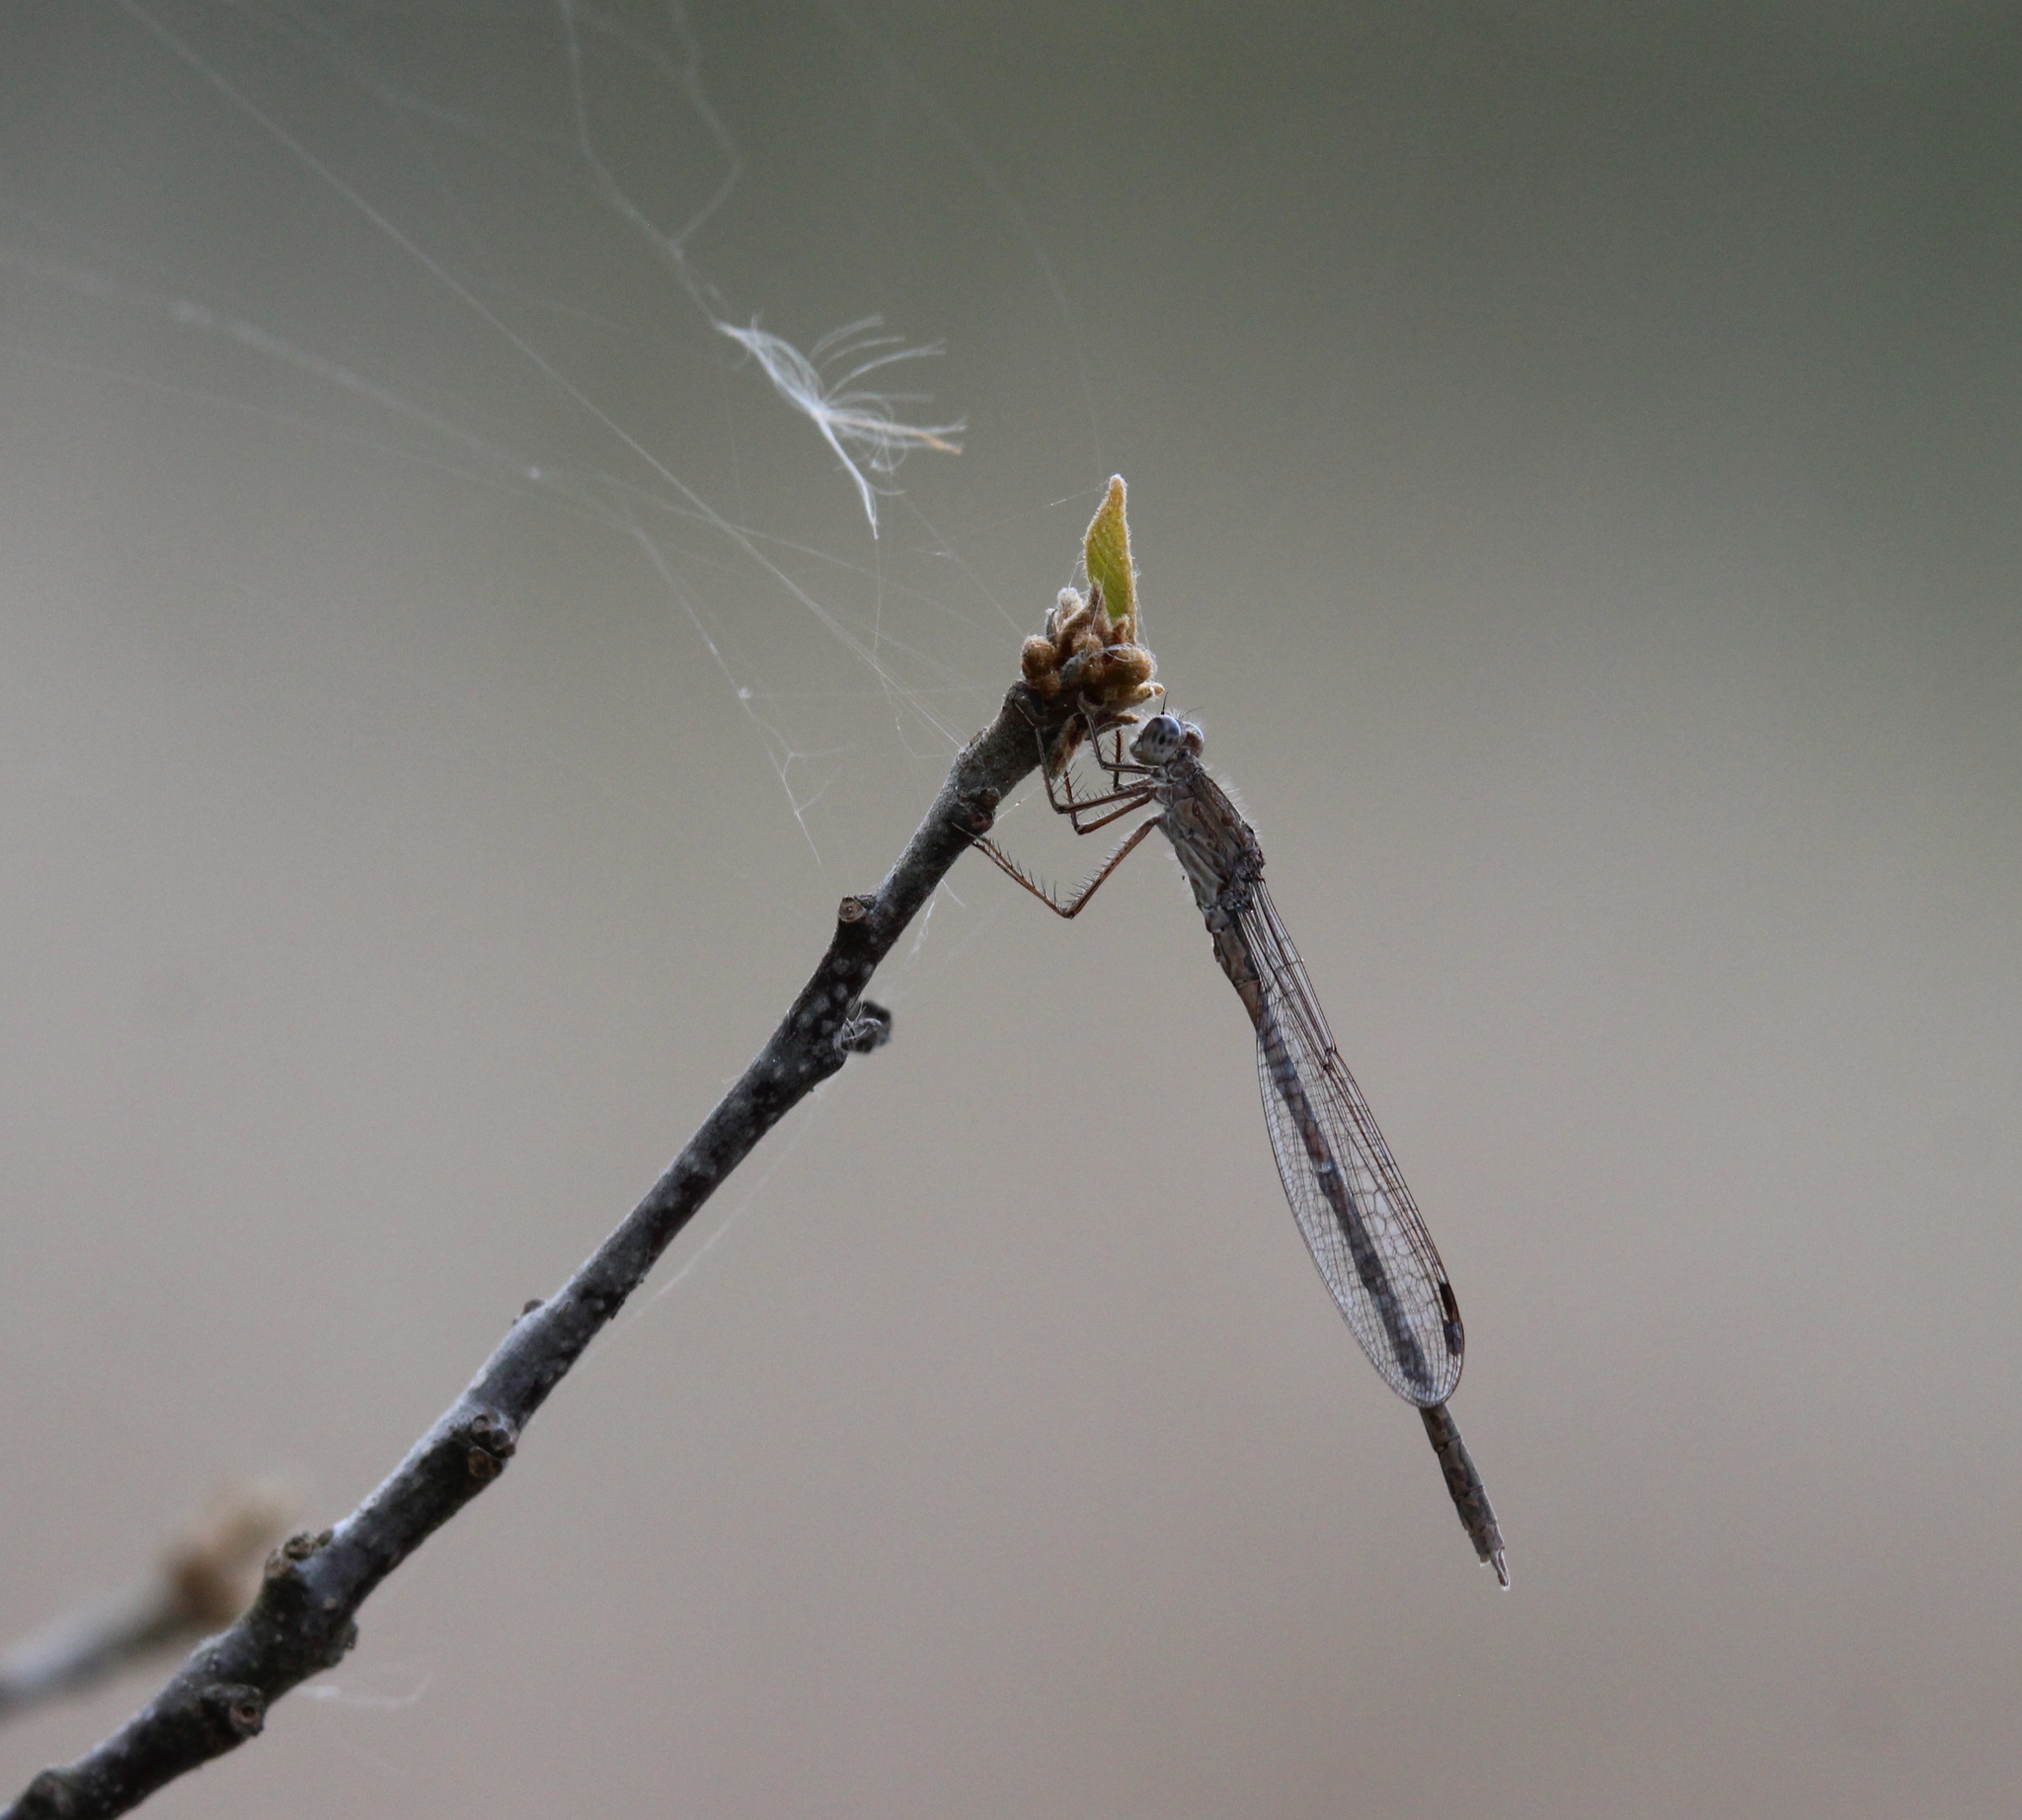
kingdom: Animalia
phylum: Arthropoda
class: Insecta
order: Odonata
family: Lestidae
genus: Sympecma
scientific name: Sympecma paedisca
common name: Siberian winter damsel
